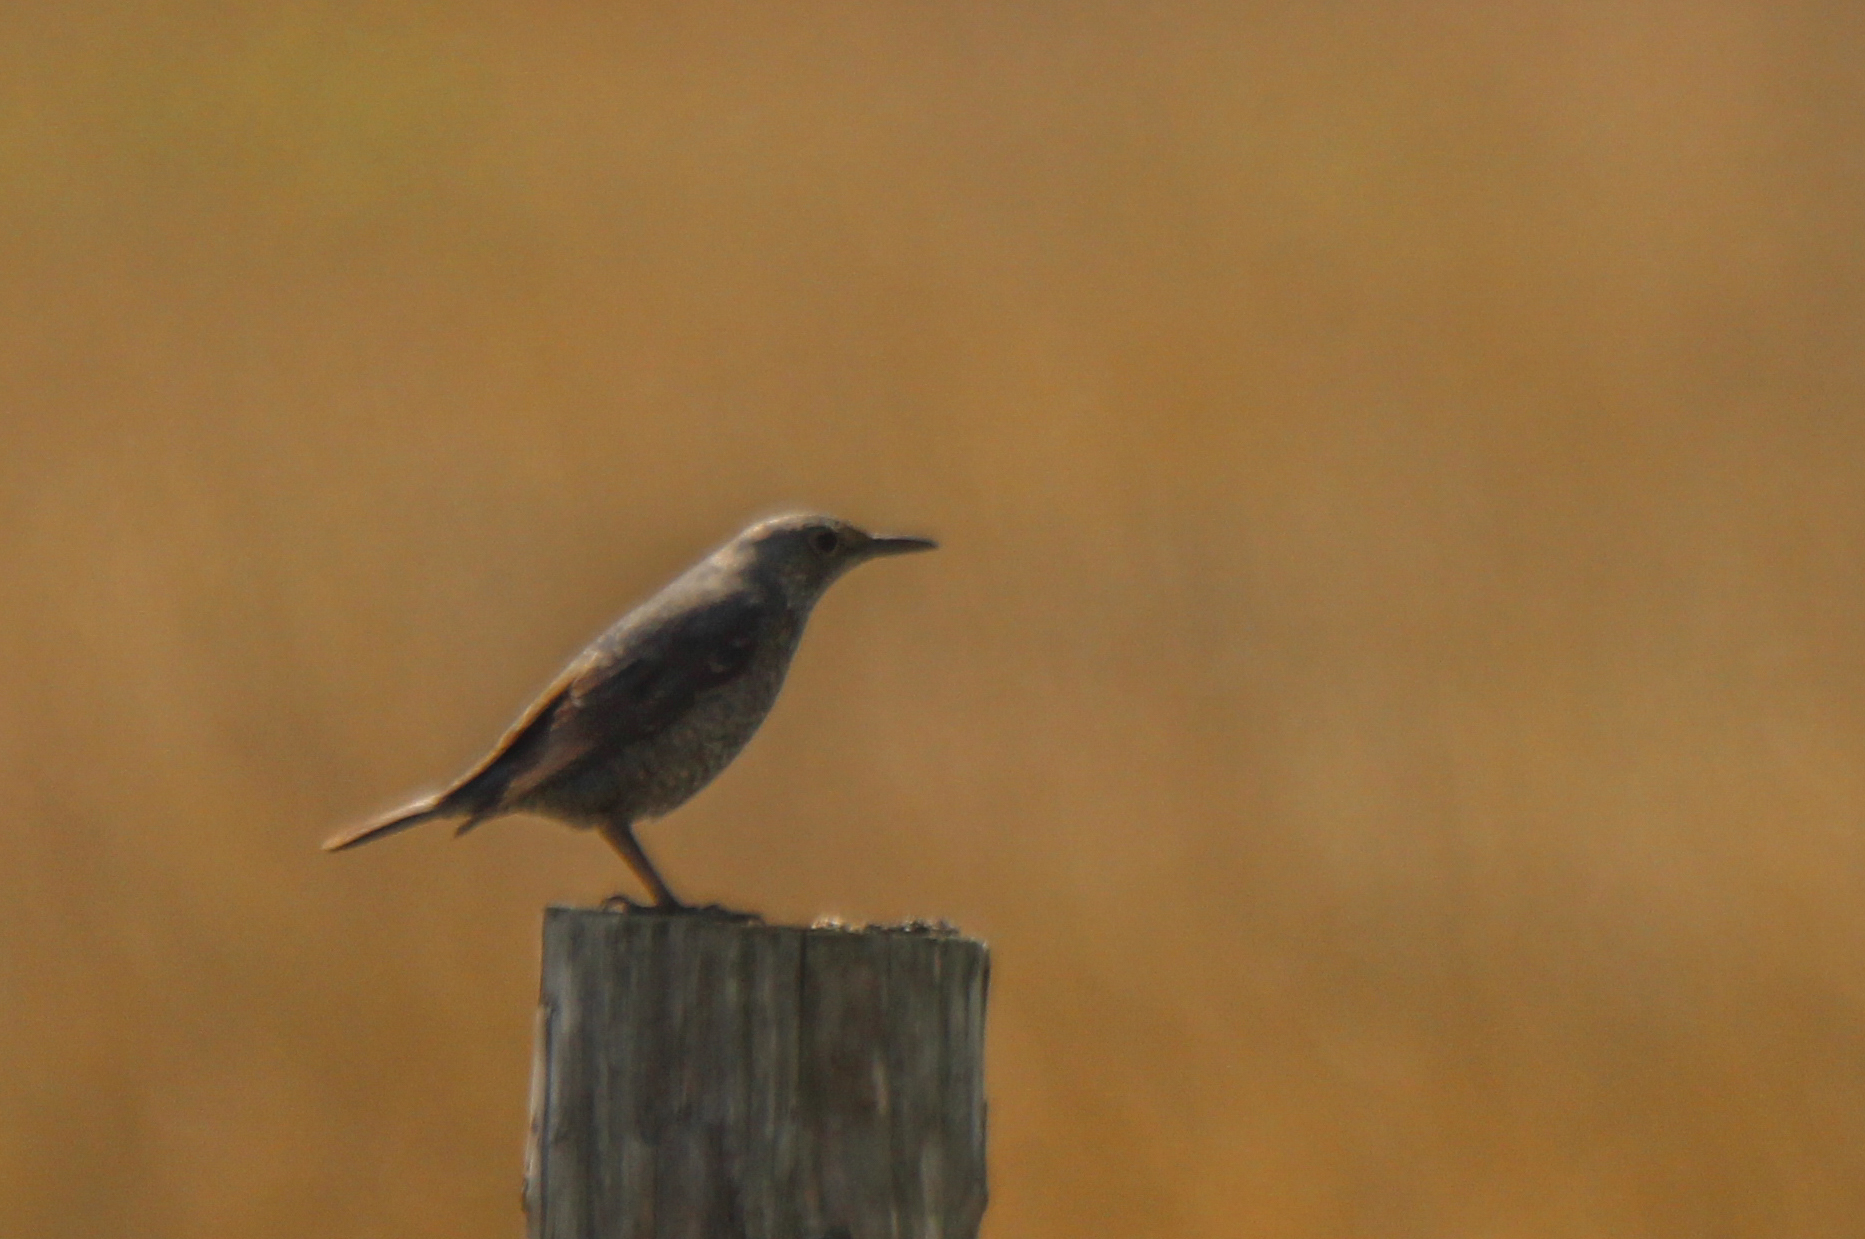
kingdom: Animalia
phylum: Chordata
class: Aves
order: Passeriformes
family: Muscicapidae
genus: Monticola
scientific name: Monticola solitarius
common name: Blue rock thrush
